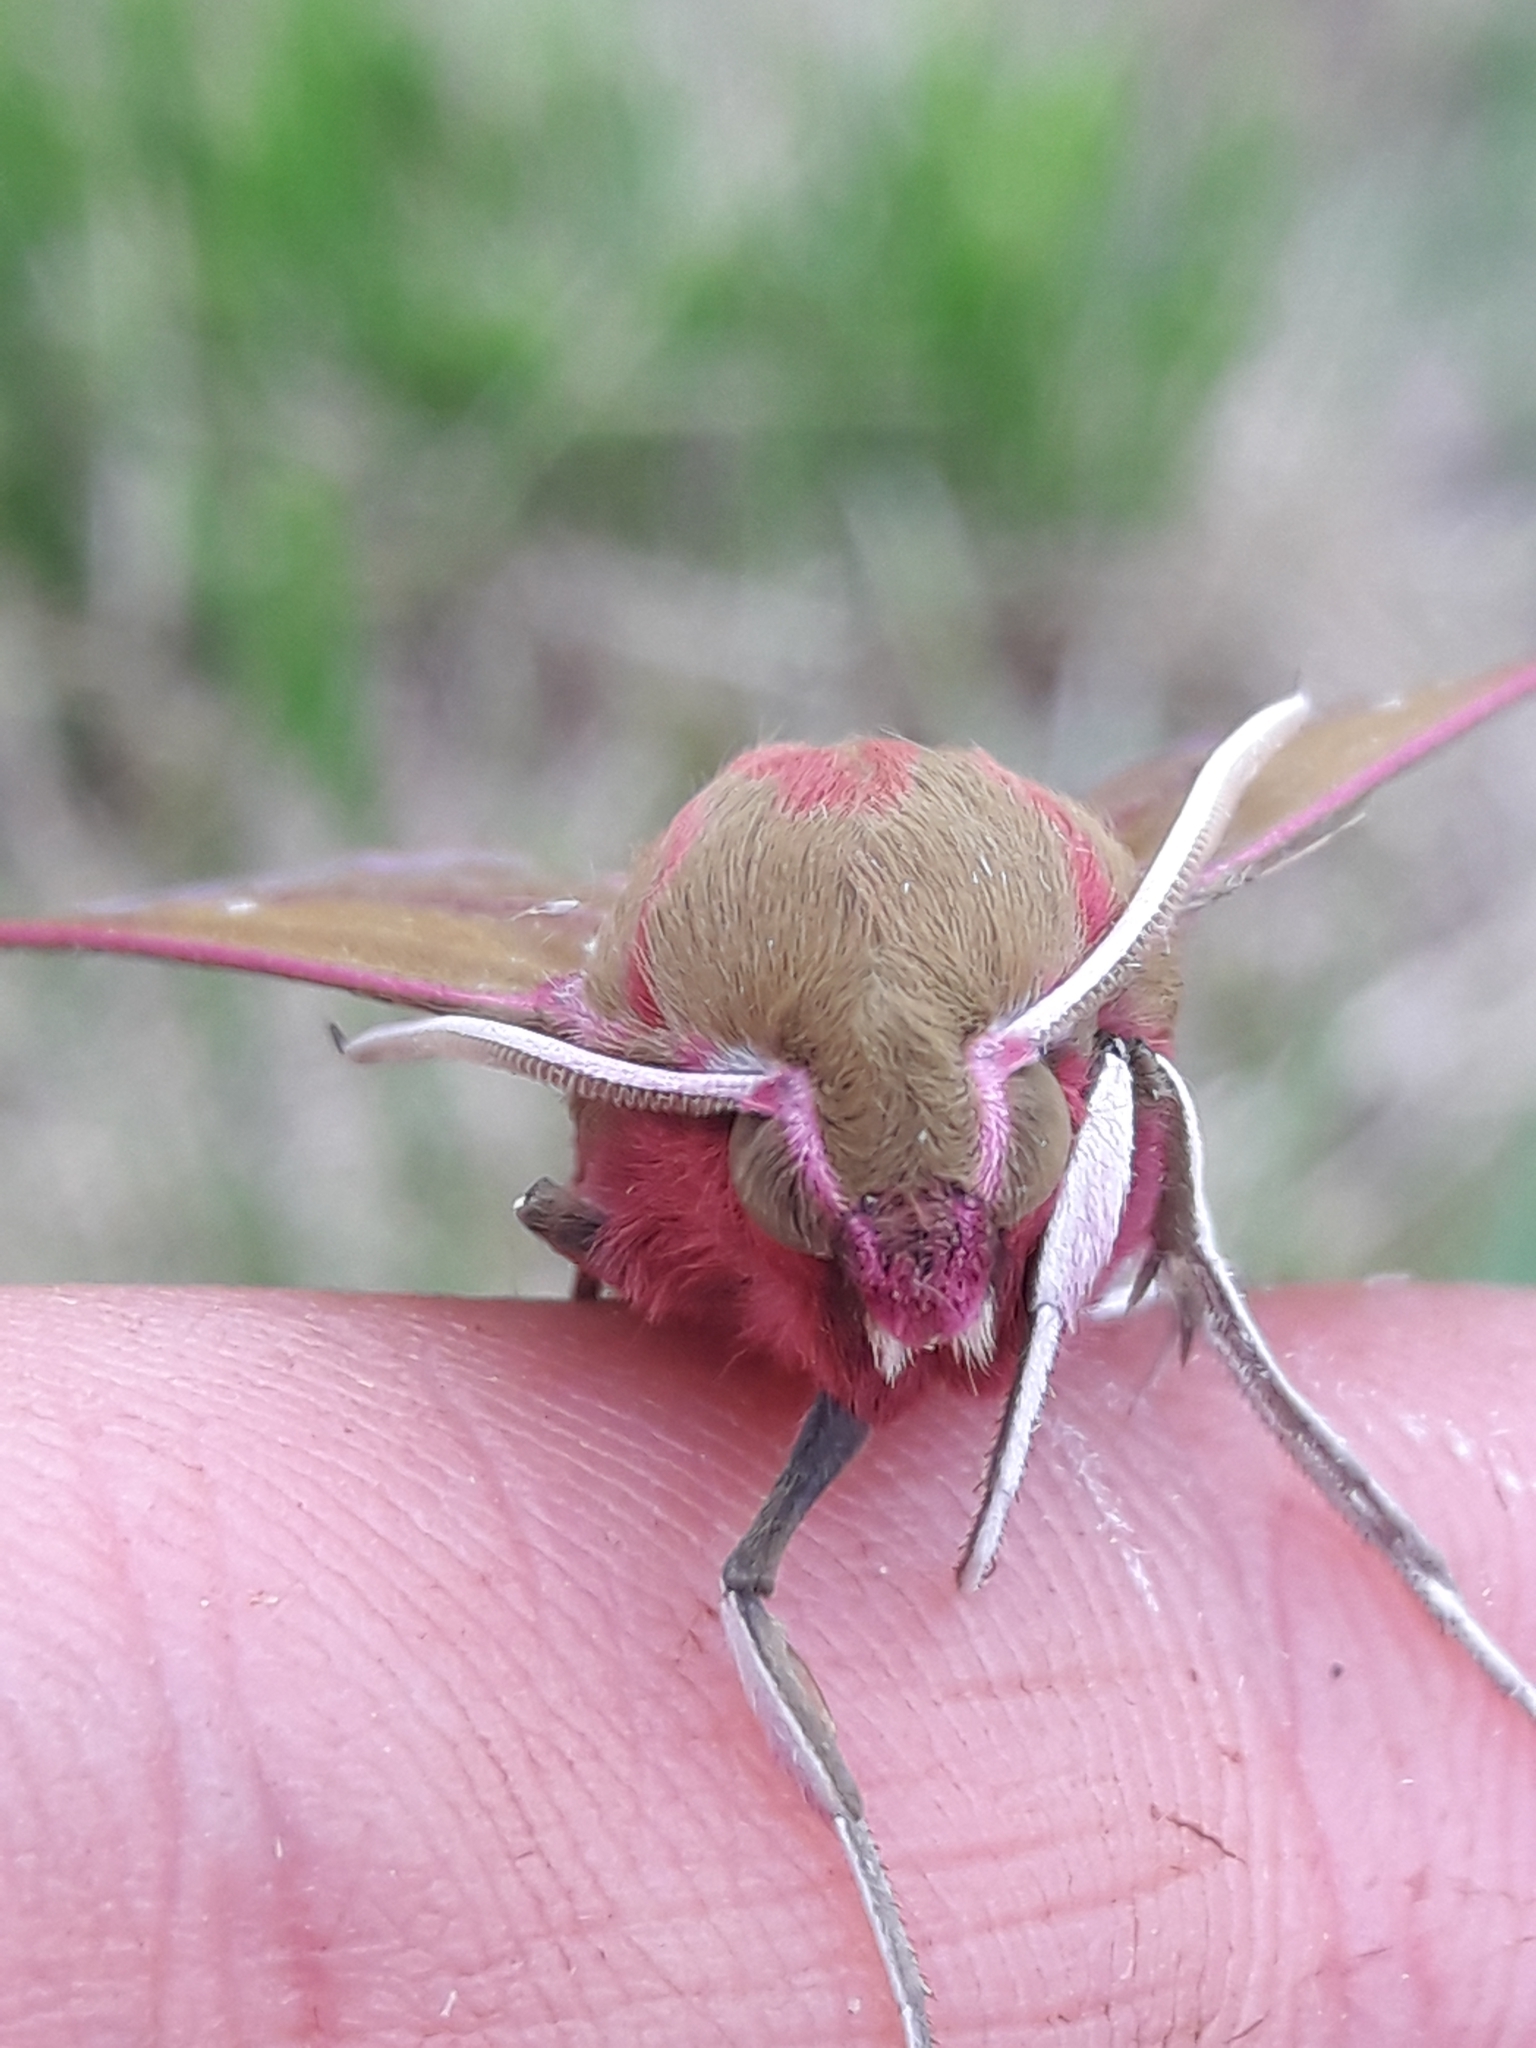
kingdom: Animalia
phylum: Arthropoda
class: Insecta
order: Lepidoptera
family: Sphingidae
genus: Deilephila
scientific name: Deilephila elpenor
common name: Elephant hawk-moth
